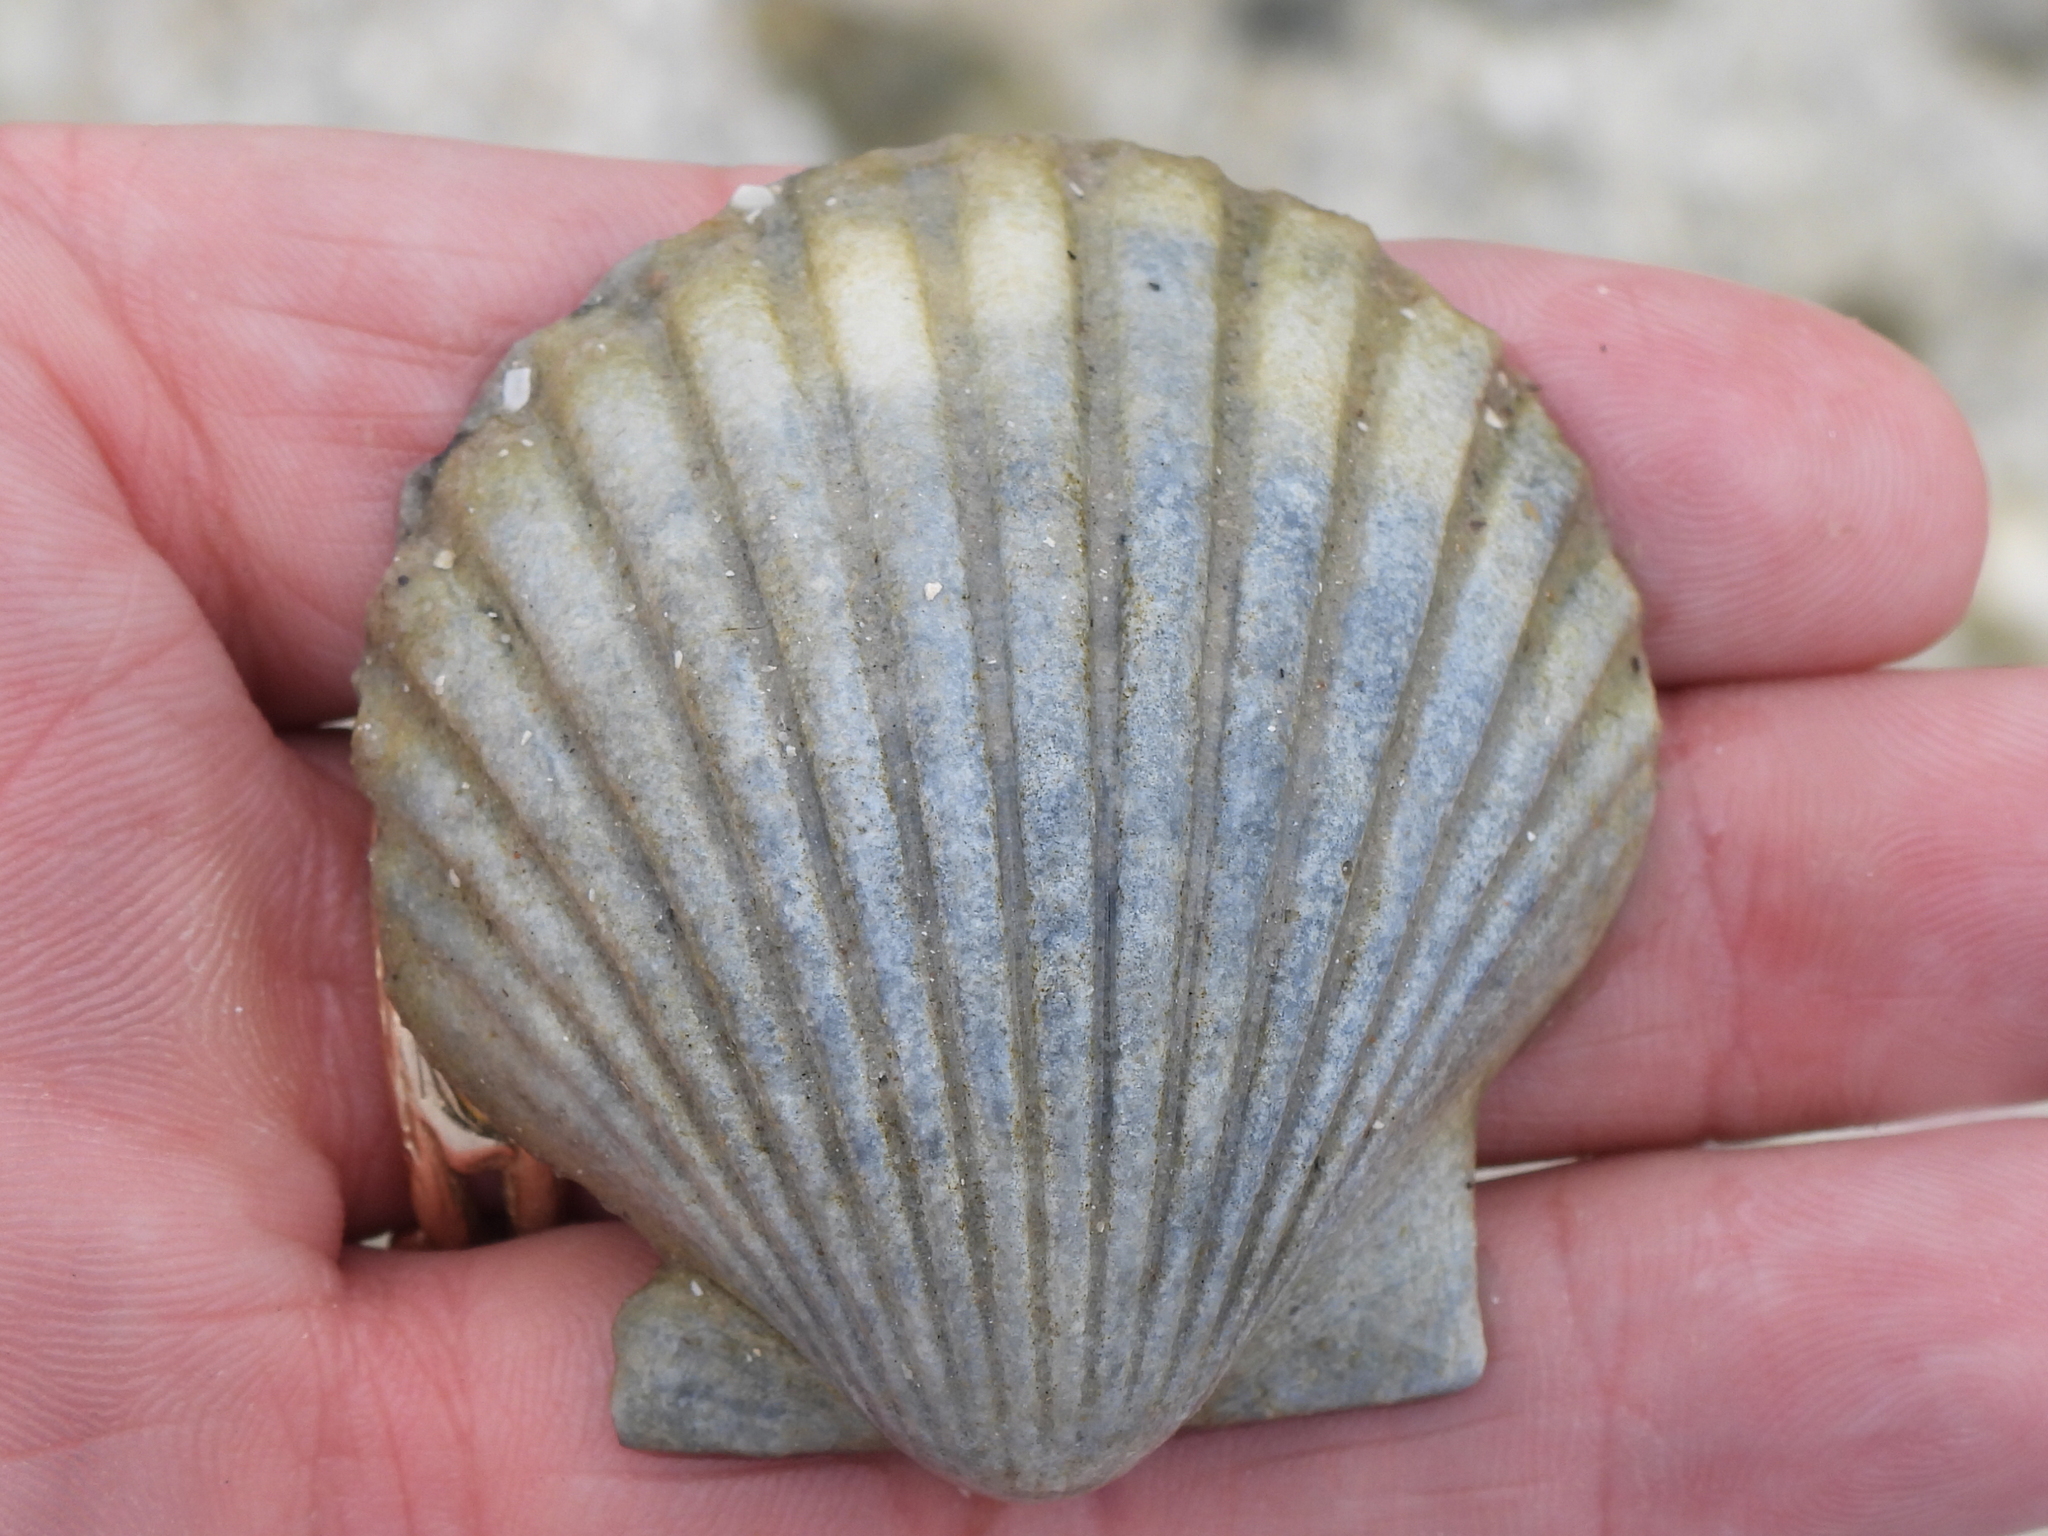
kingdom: Animalia
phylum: Mollusca
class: Bivalvia
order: Pectinida
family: Pectinidae
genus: Argopecten
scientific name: Argopecten irradians
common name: Atlantic bay scallop
